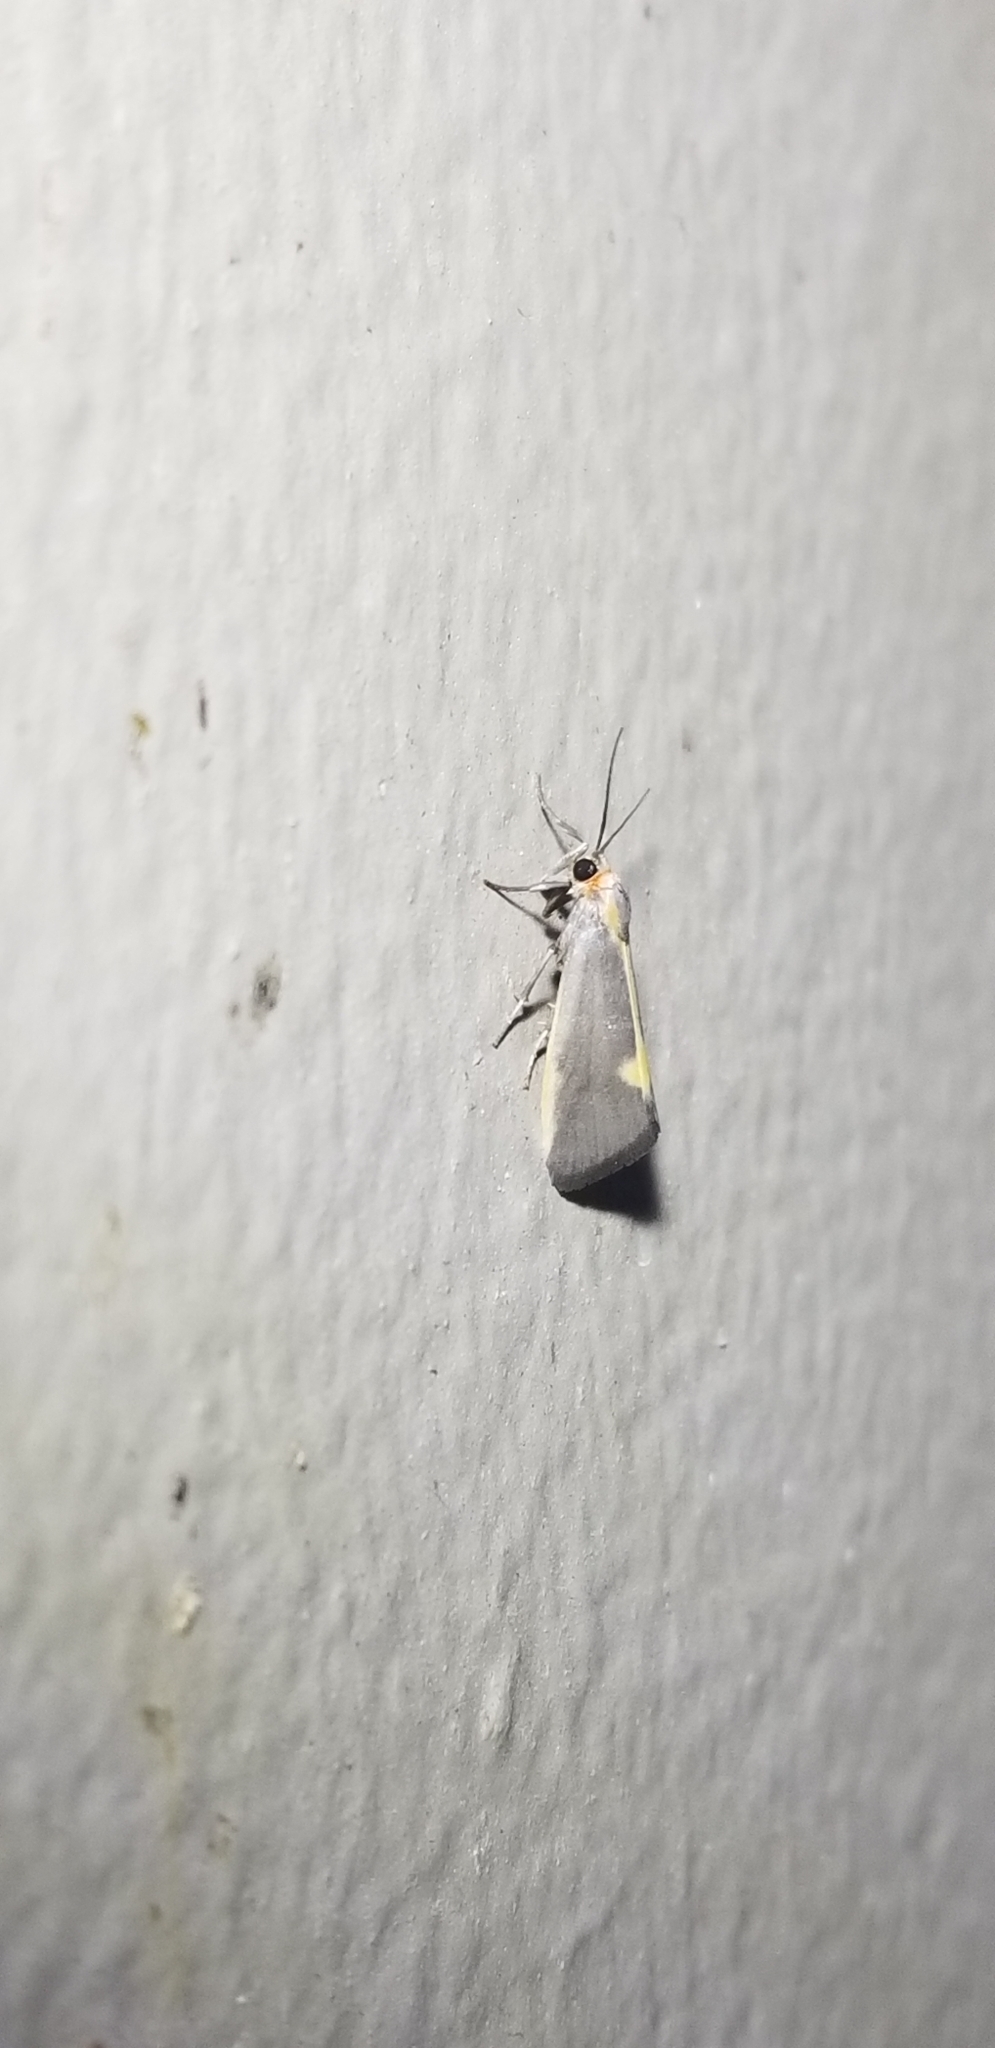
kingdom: Animalia
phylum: Arthropoda
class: Insecta
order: Lepidoptera
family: Erebidae
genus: Cisthene
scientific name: Cisthene plumbea
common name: Lead colored lichen moth
